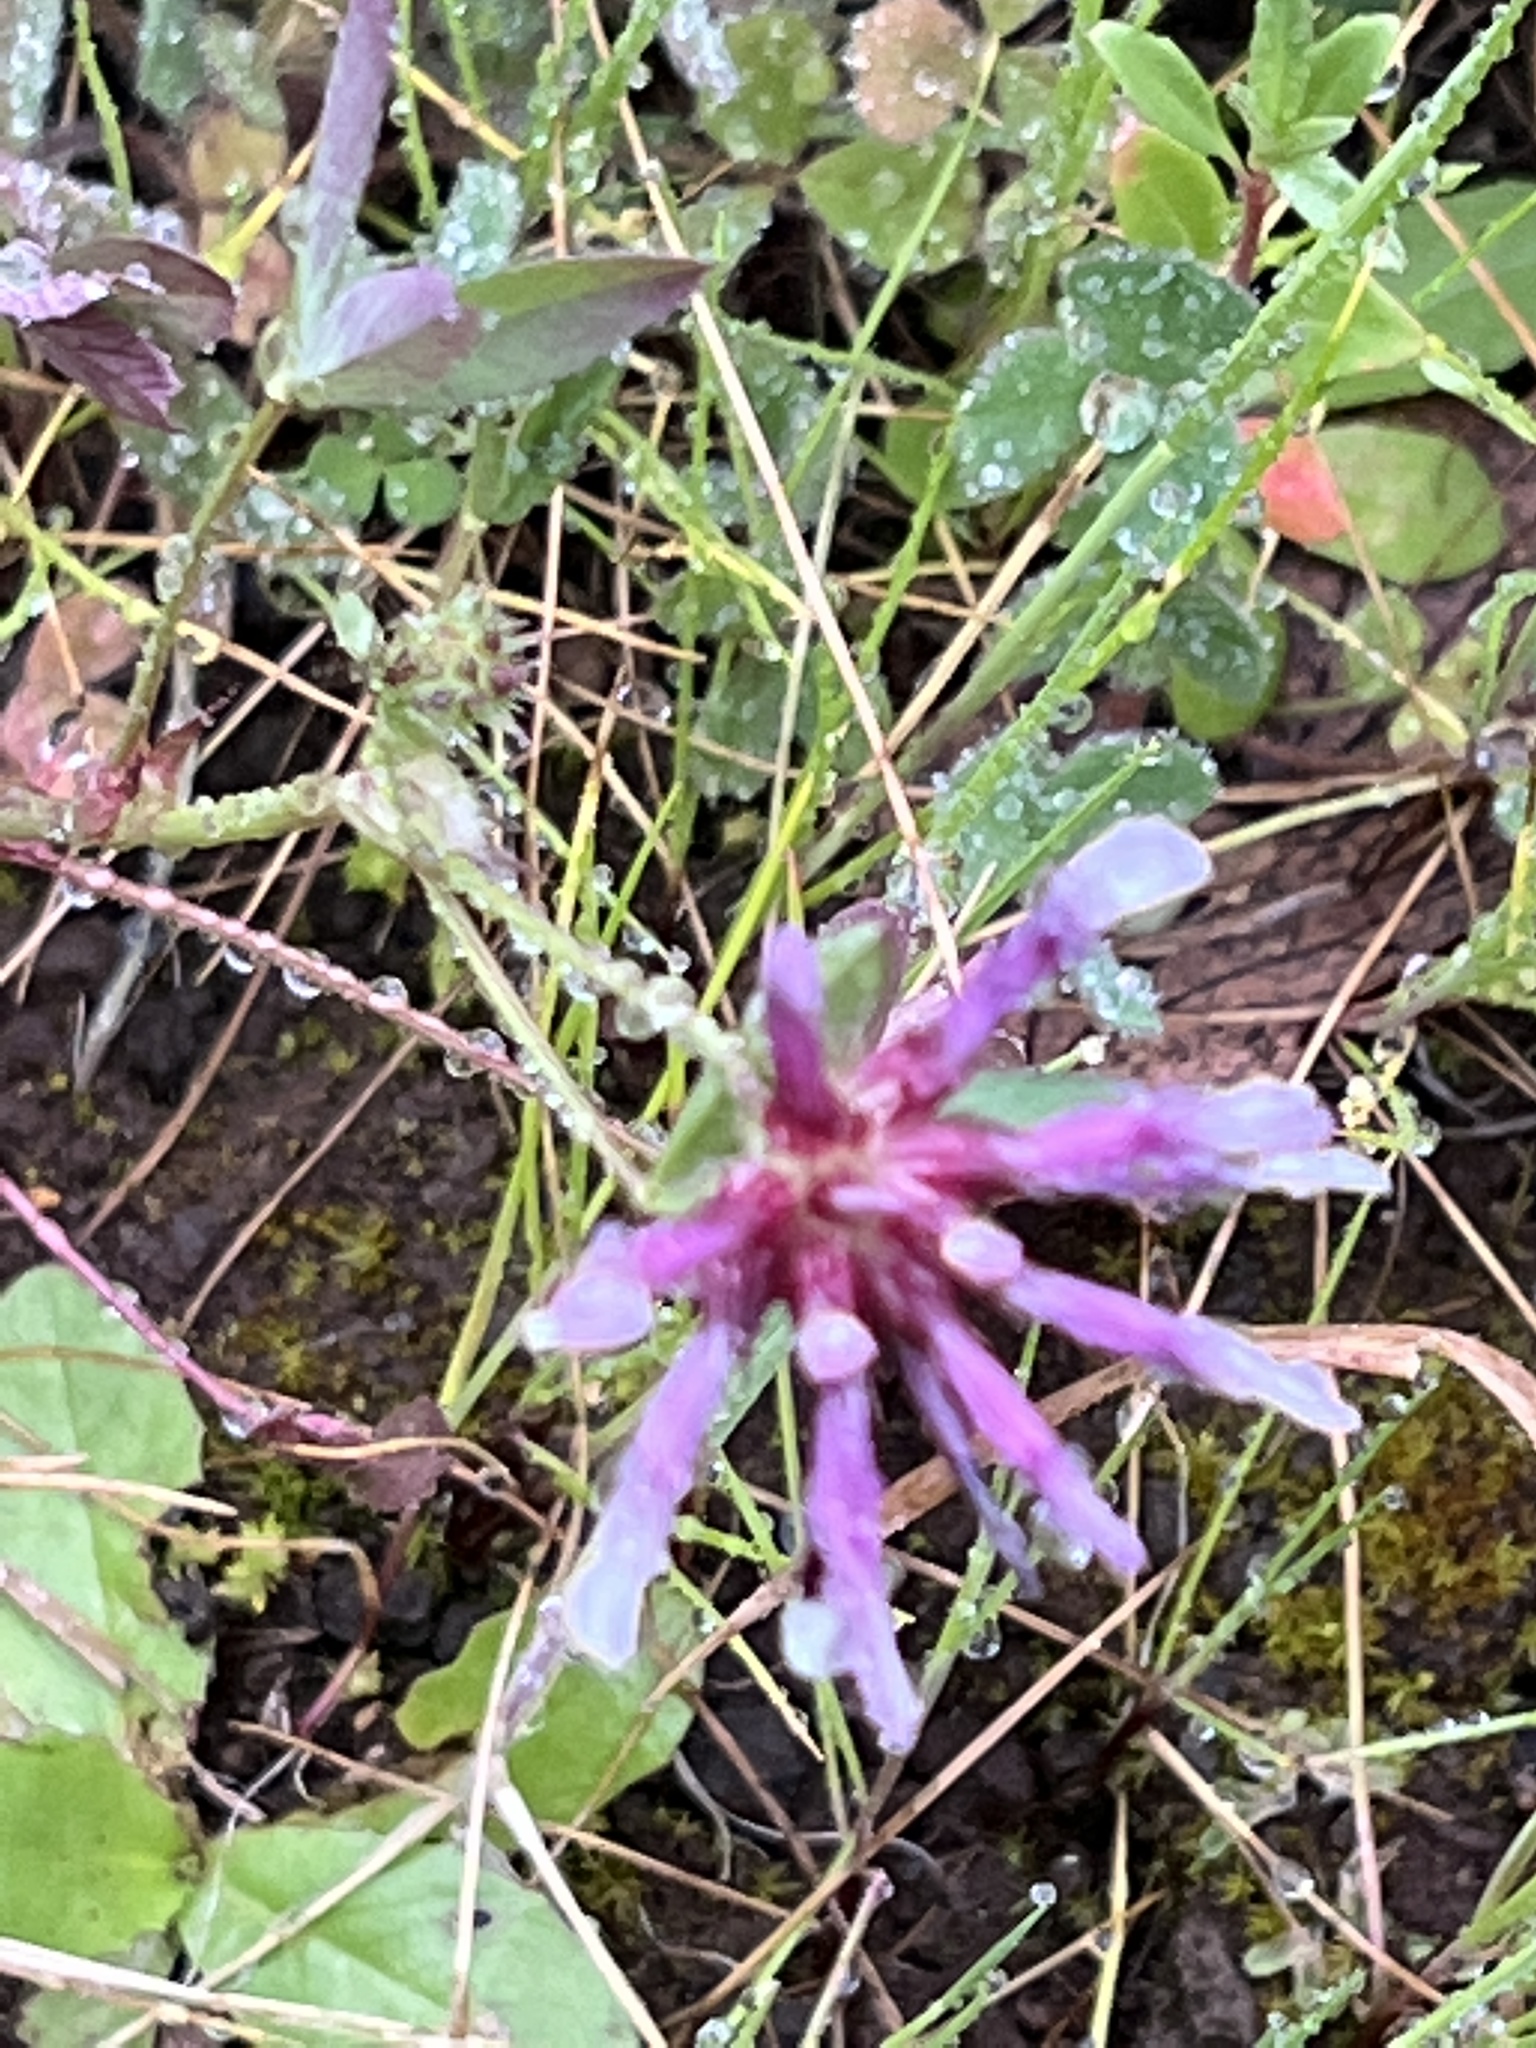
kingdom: Plantae
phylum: Tracheophyta
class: Magnoliopsida
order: Fabales
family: Fabaceae
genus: Trifolium
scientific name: Trifolium willdenovii
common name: Tomcat clover
